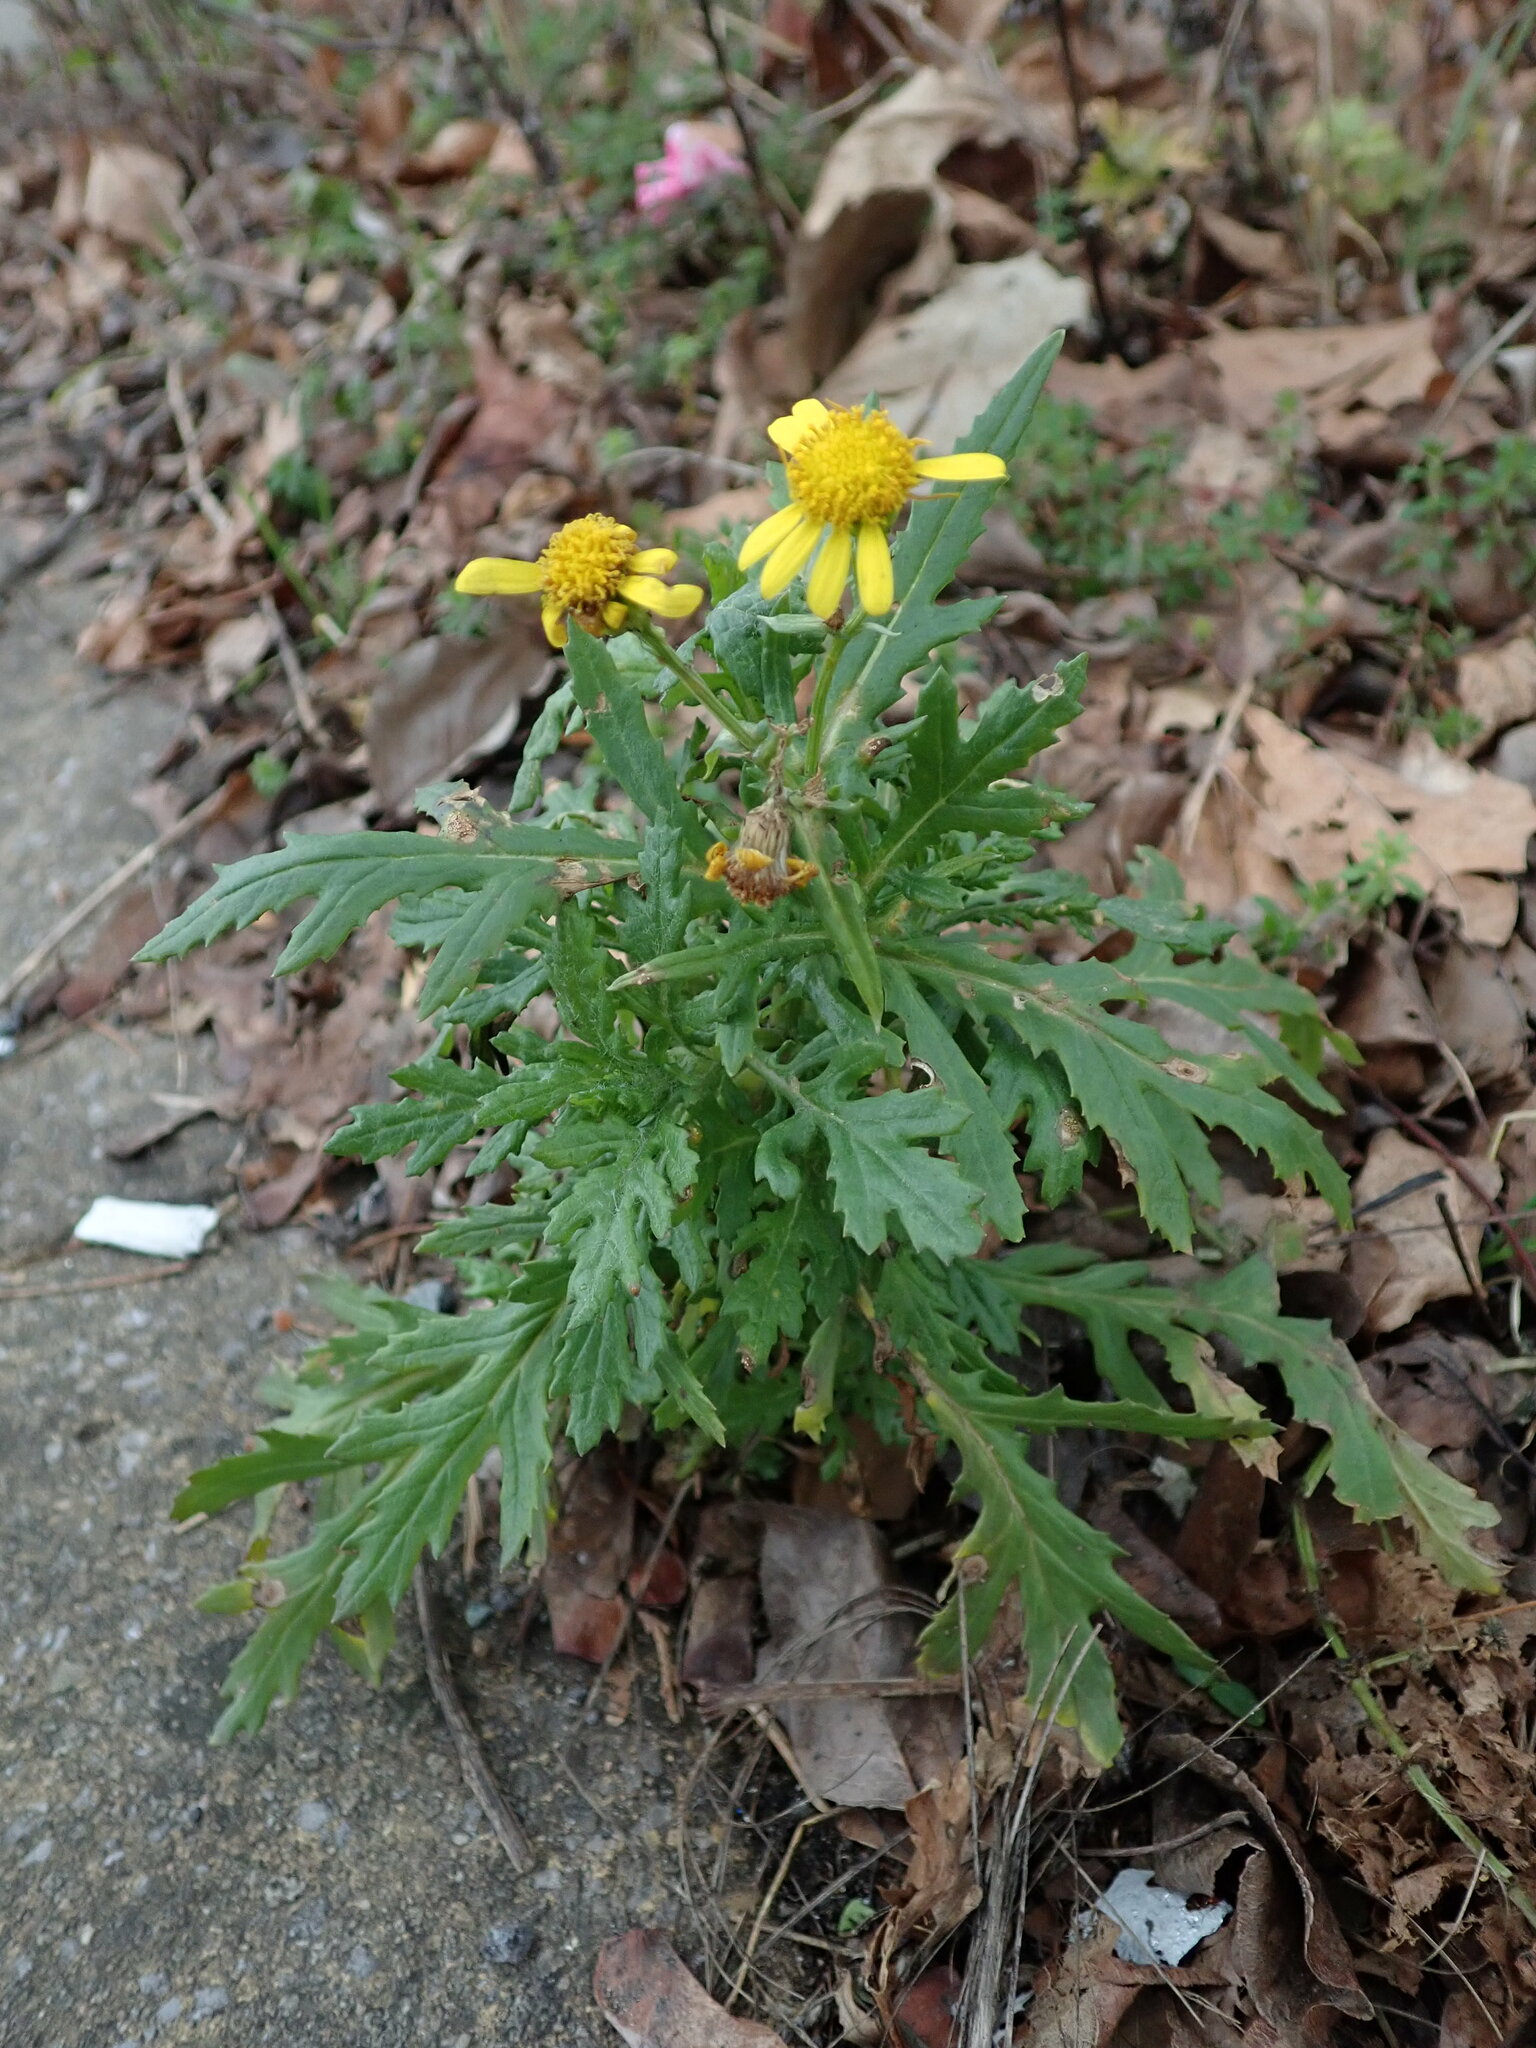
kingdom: Plantae
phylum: Tracheophyta
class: Magnoliopsida
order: Asterales
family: Asteraceae
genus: Senecio
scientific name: Senecio squalidus
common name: Oxford ragwort
